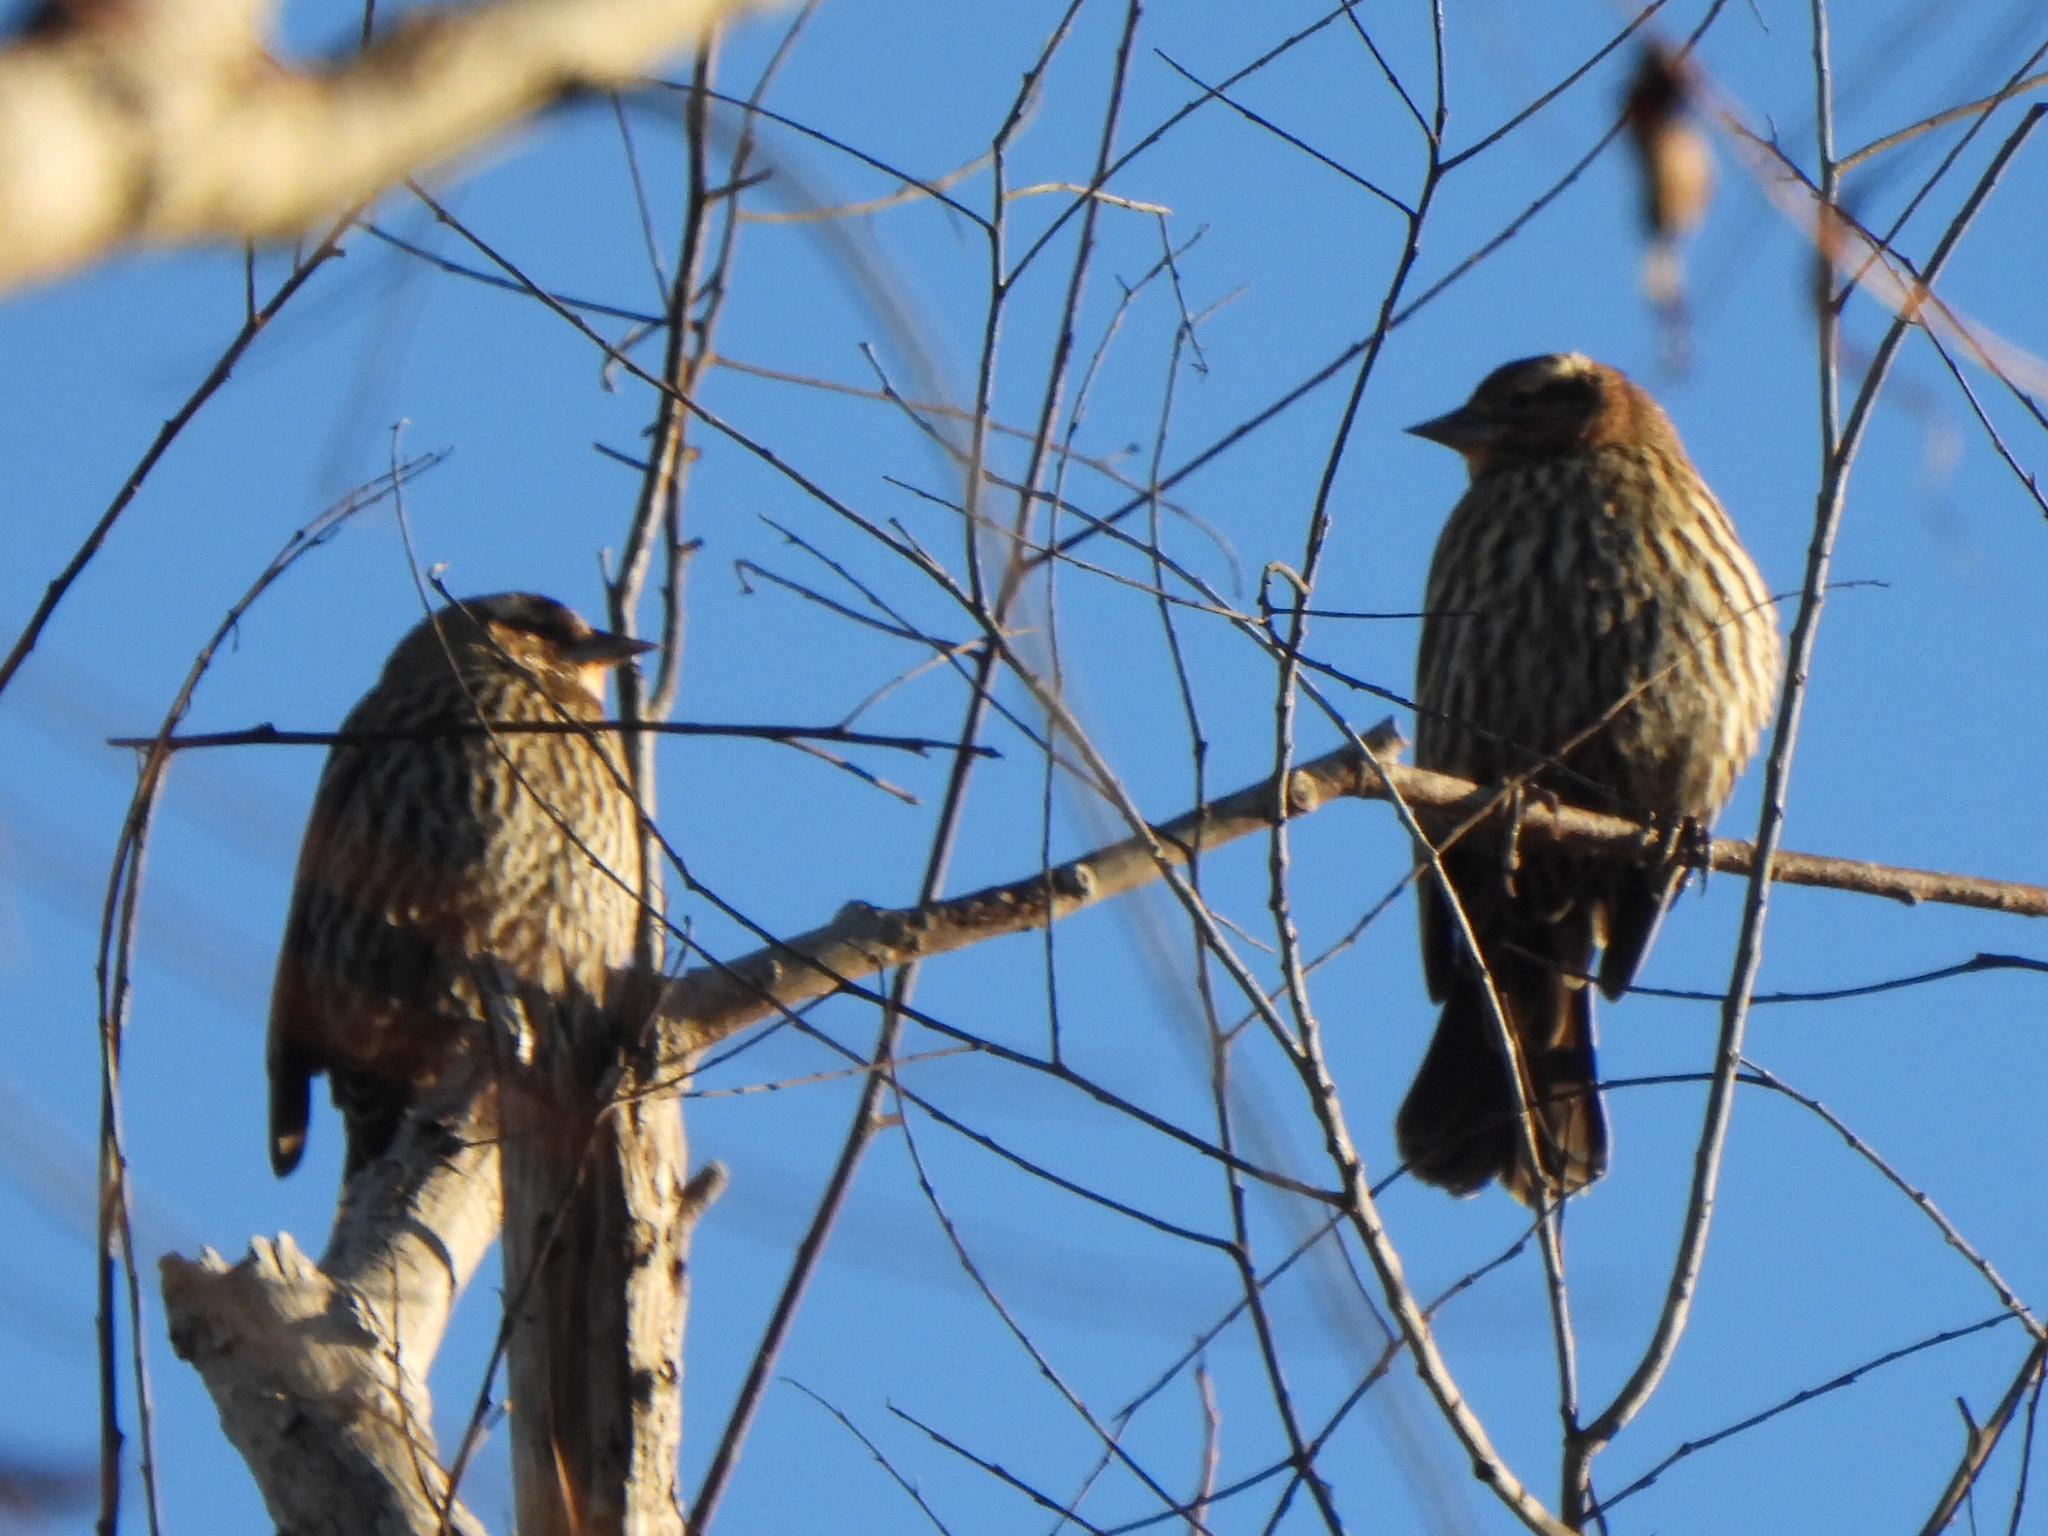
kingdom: Animalia
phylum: Chordata
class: Aves
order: Passeriformes
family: Icteridae
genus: Agelaius
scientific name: Agelaius phoeniceus
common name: Red-winged blackbird
